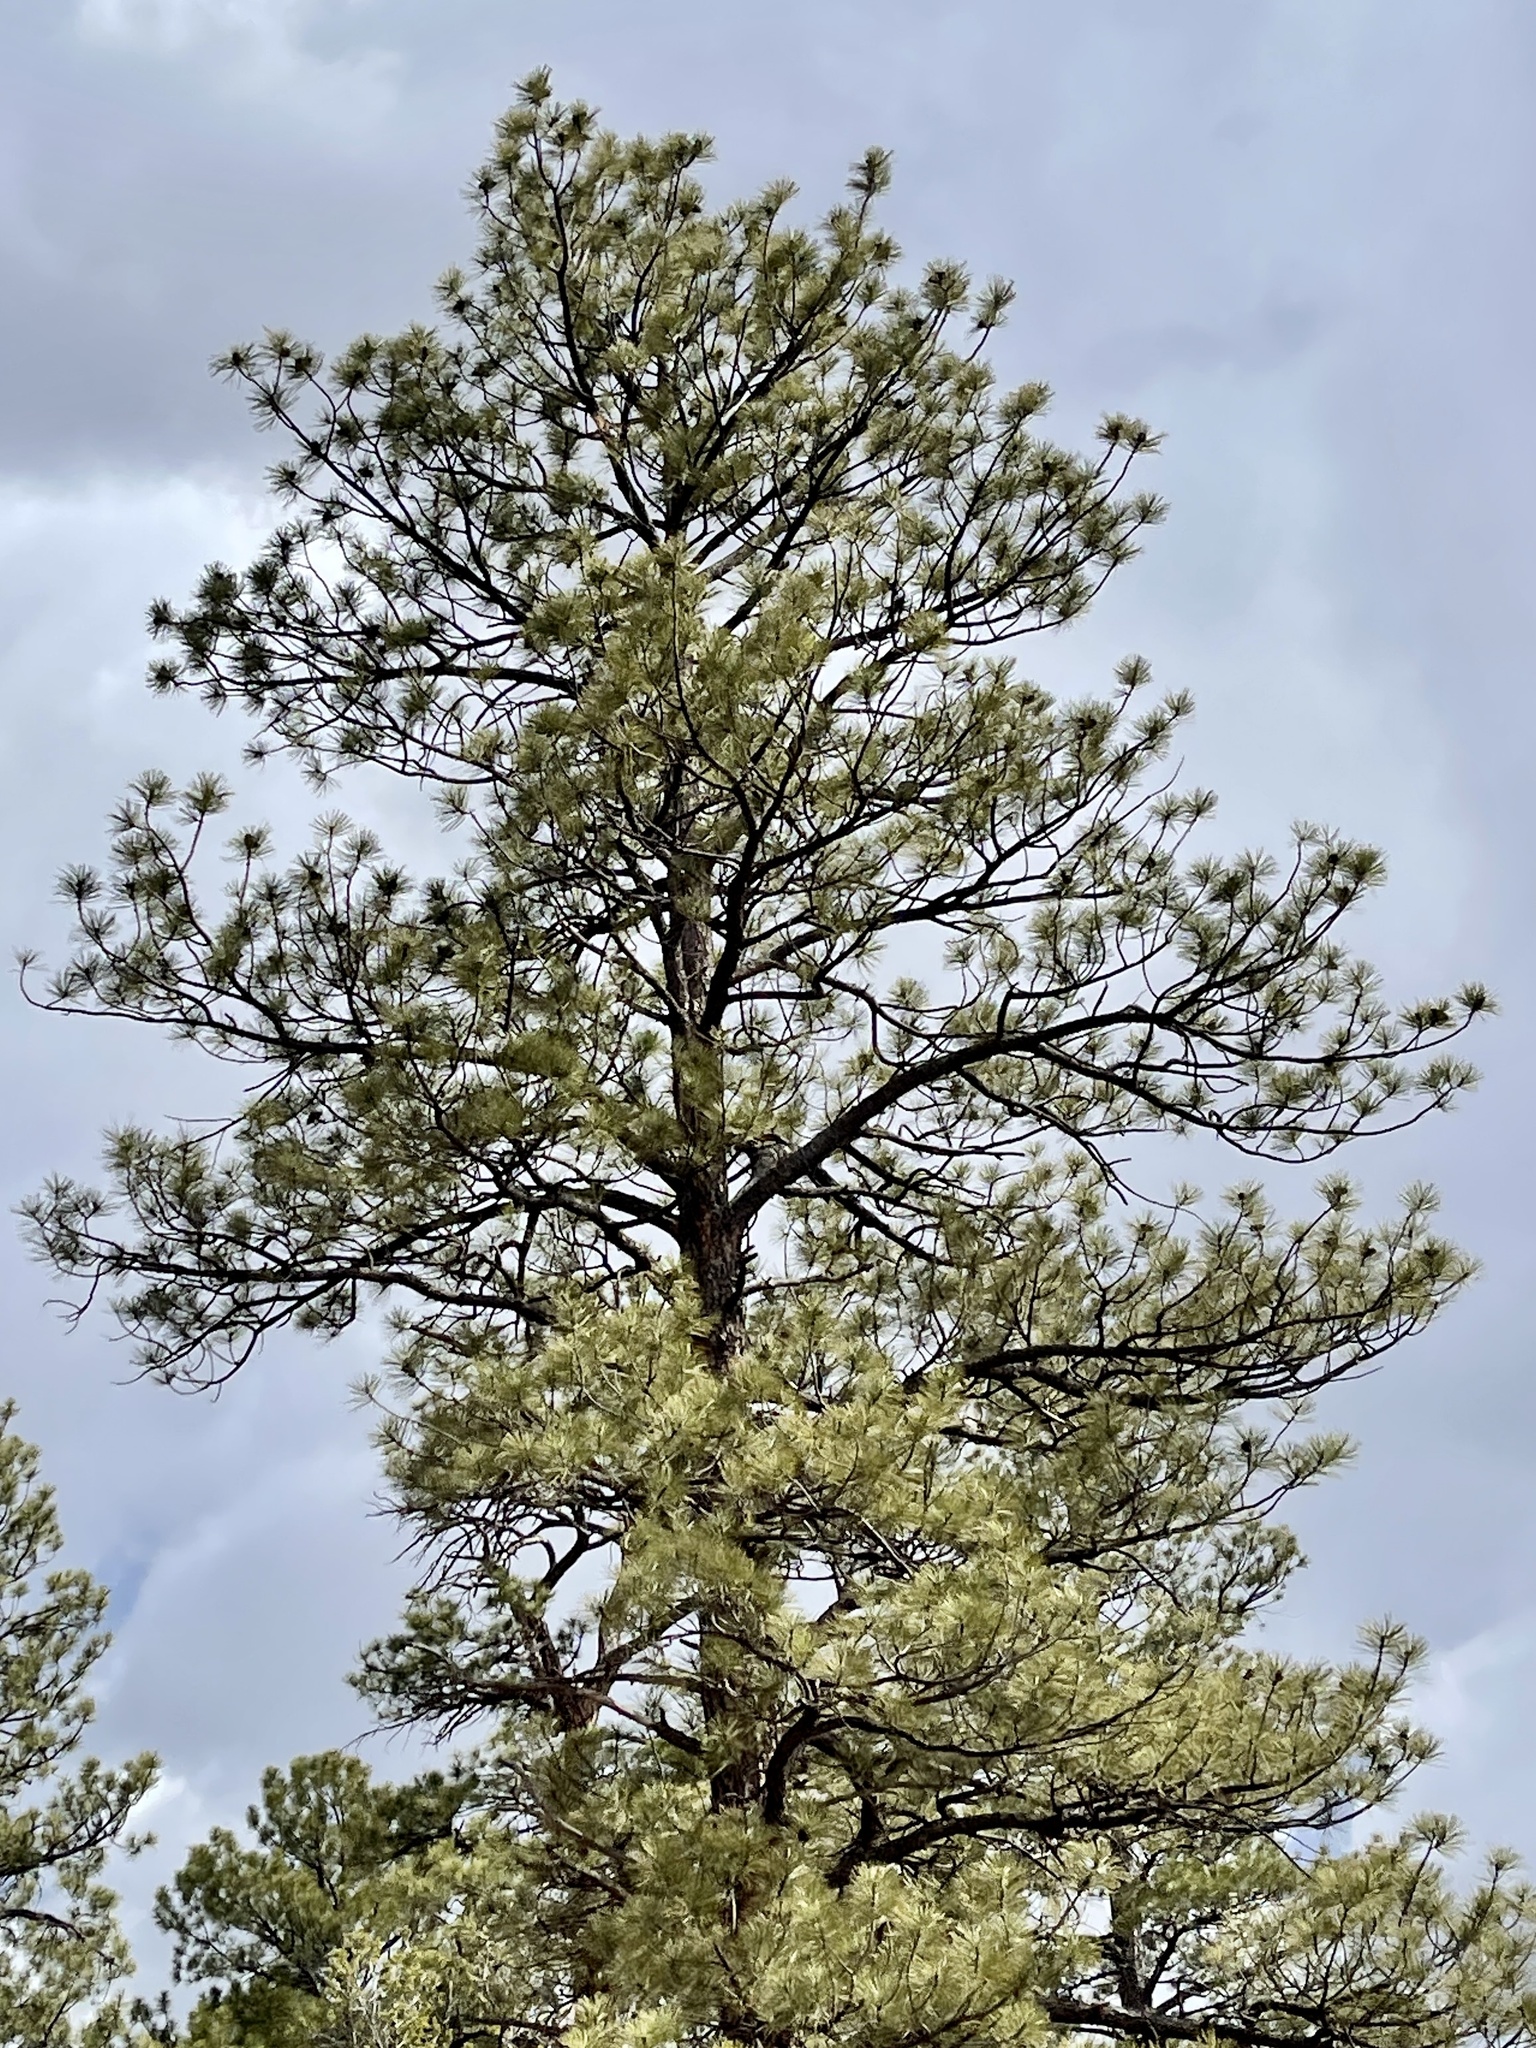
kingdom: Plantae
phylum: Tracheophyta
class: Pinopsida
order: Pinales
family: Pinaceae
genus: Pinus
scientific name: Pinus ponderosa
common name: Western yellow-pine
